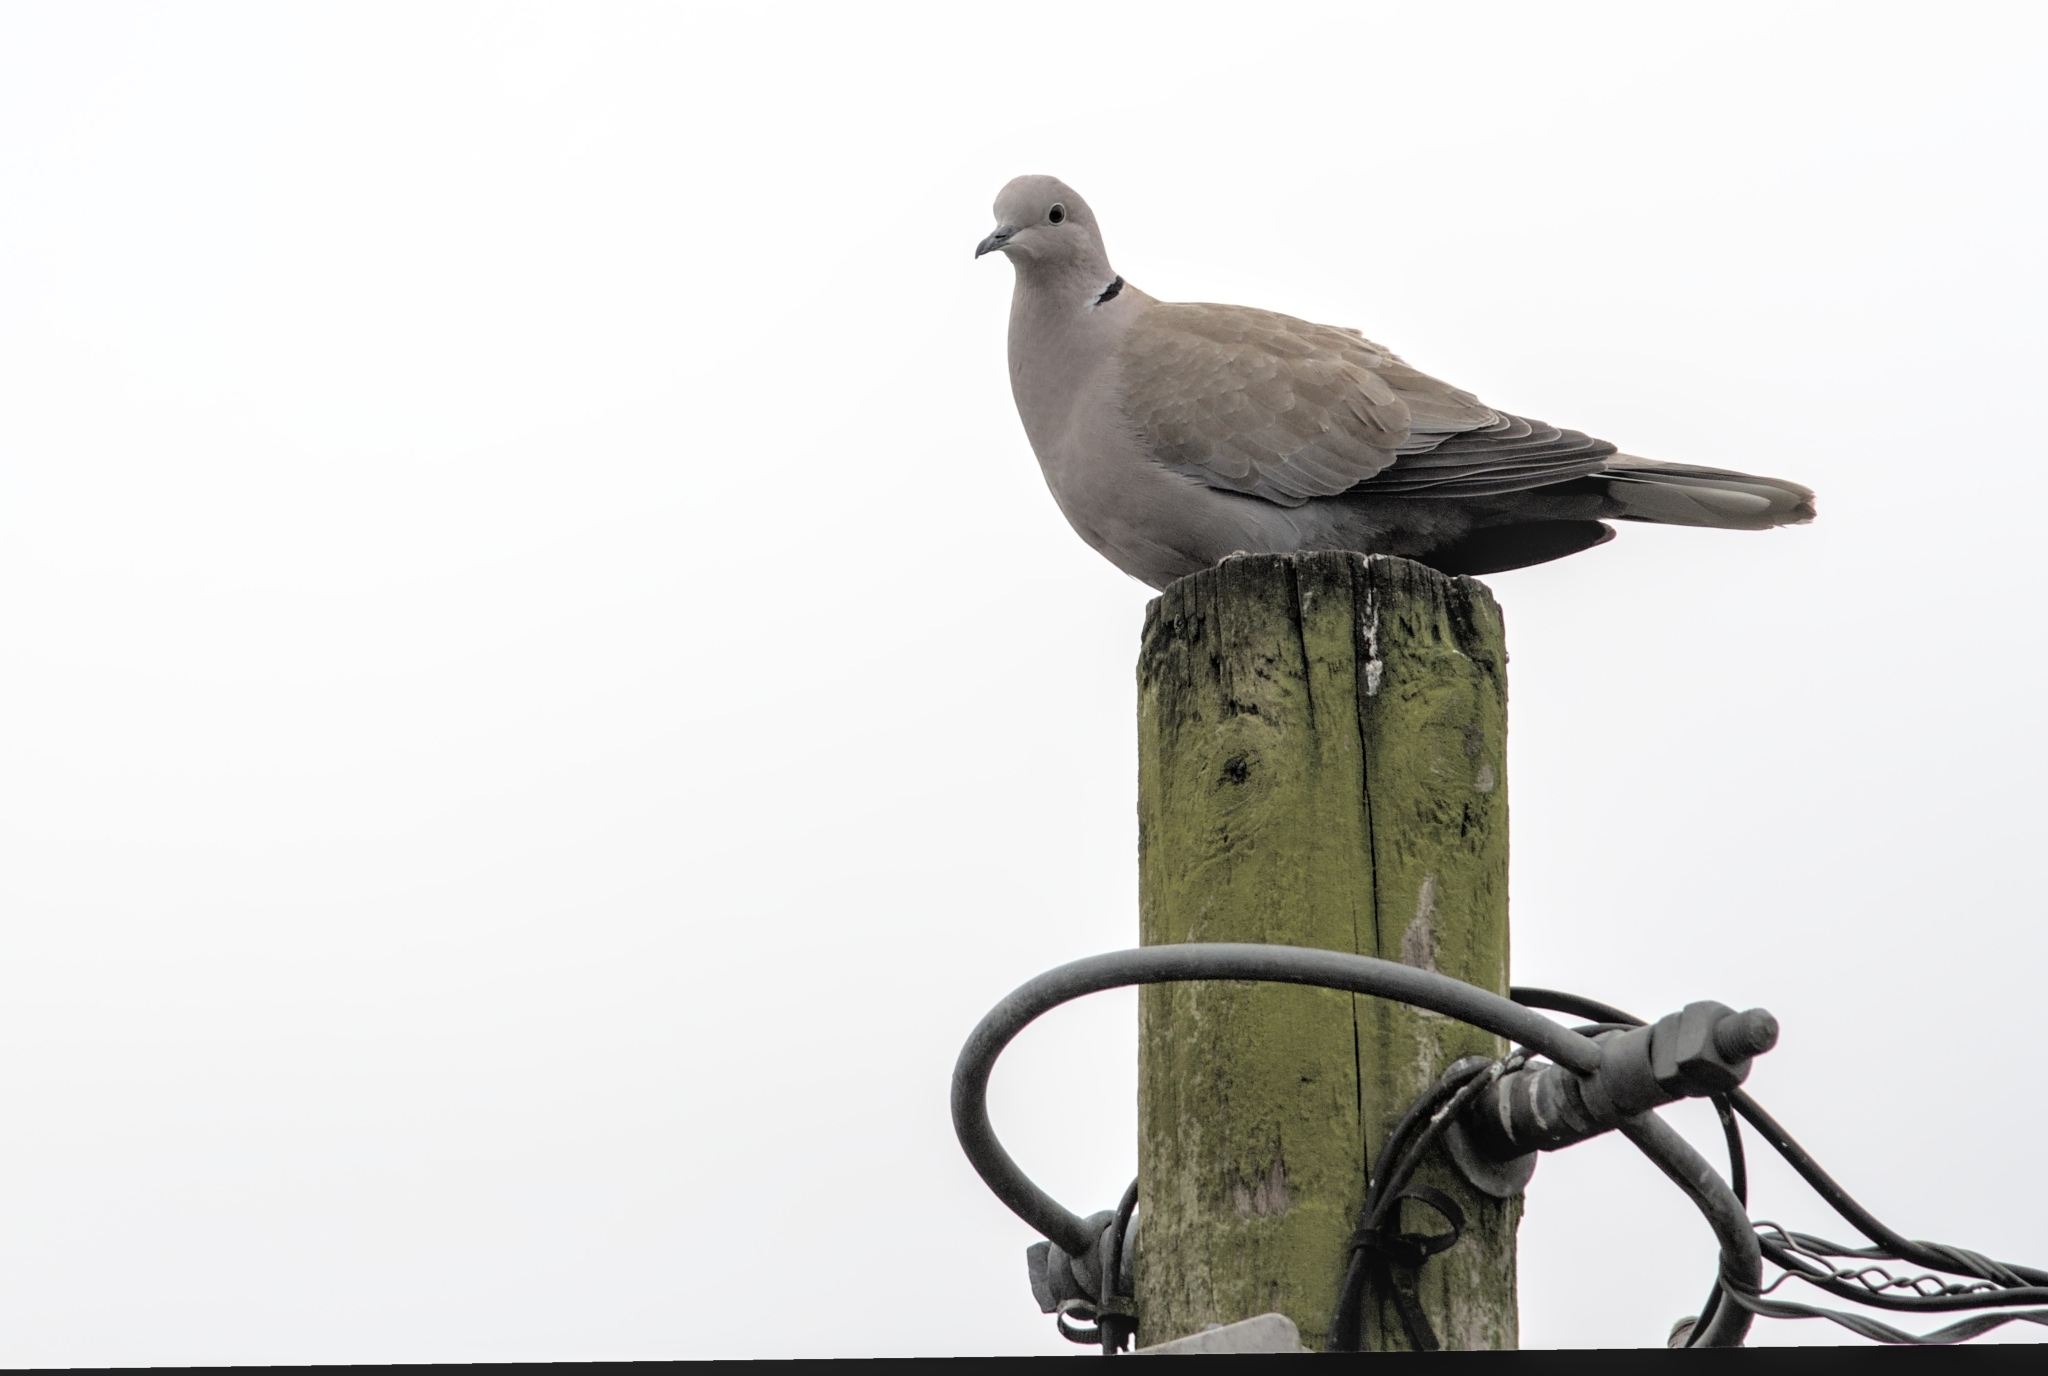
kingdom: Animalia
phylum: Chordata
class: Aves
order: Columbiformes
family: Columbidae
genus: Streptopelia
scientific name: Streptopelia decaocto
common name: Eurasian collared dove
